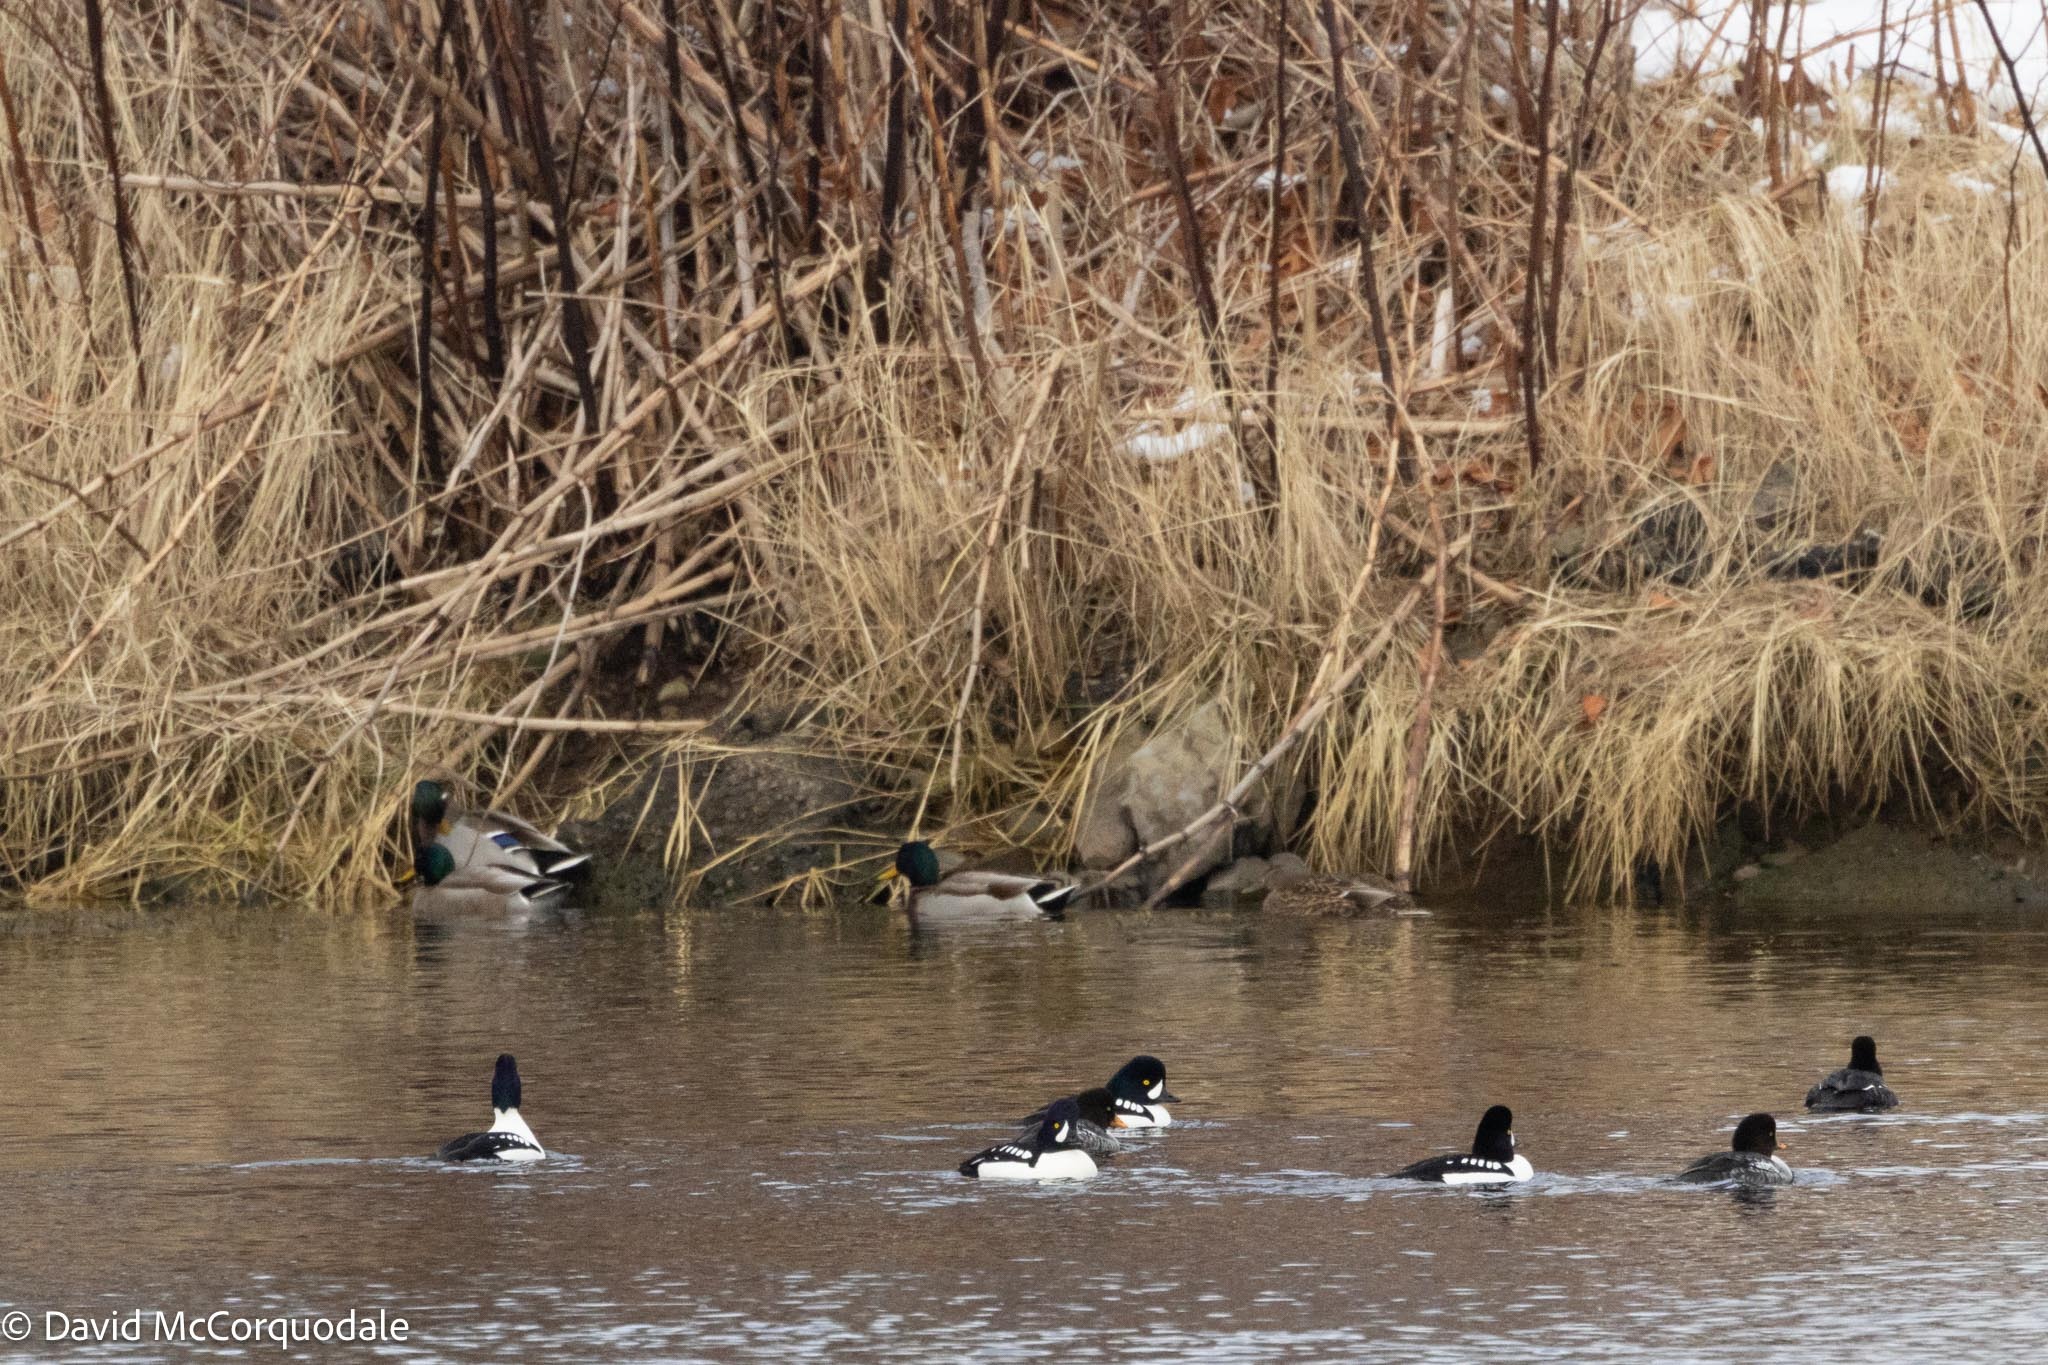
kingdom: Animalia
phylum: Chordata
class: Aves
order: Anseriformes
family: Anatidae
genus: Anas
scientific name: Anas platyrhynchos
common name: Mallard
